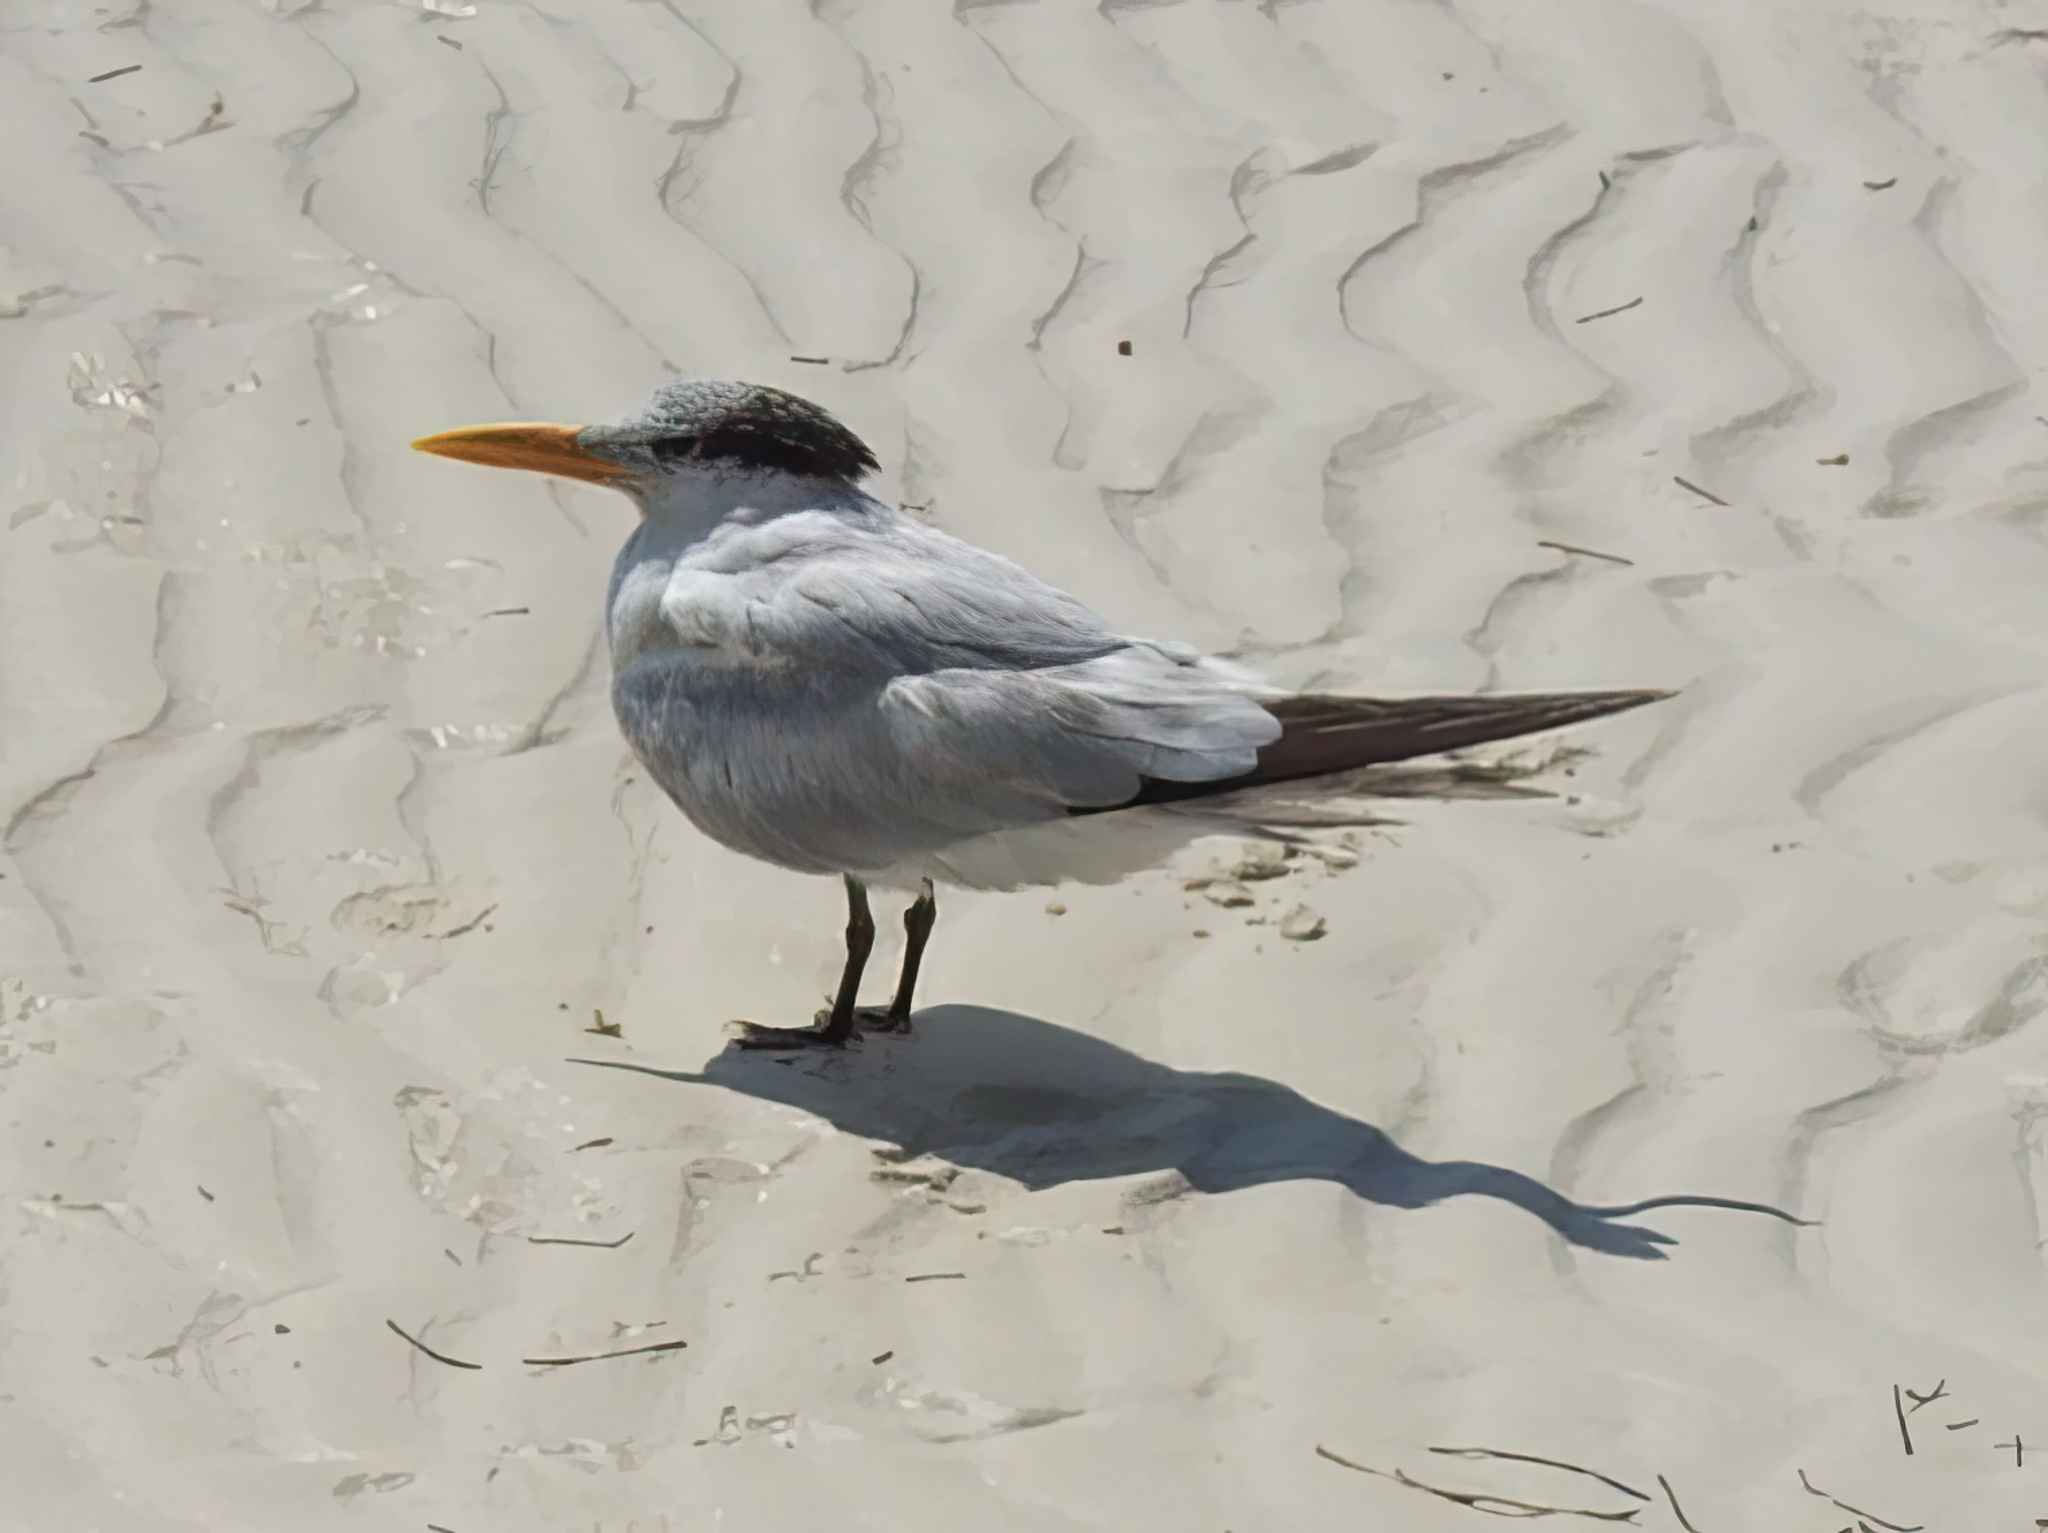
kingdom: Animalia
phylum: Chordata
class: Aves
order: Charadriiformes
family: Laridae
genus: Thalasseus
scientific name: Thalasseus maximus
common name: Royal tern
